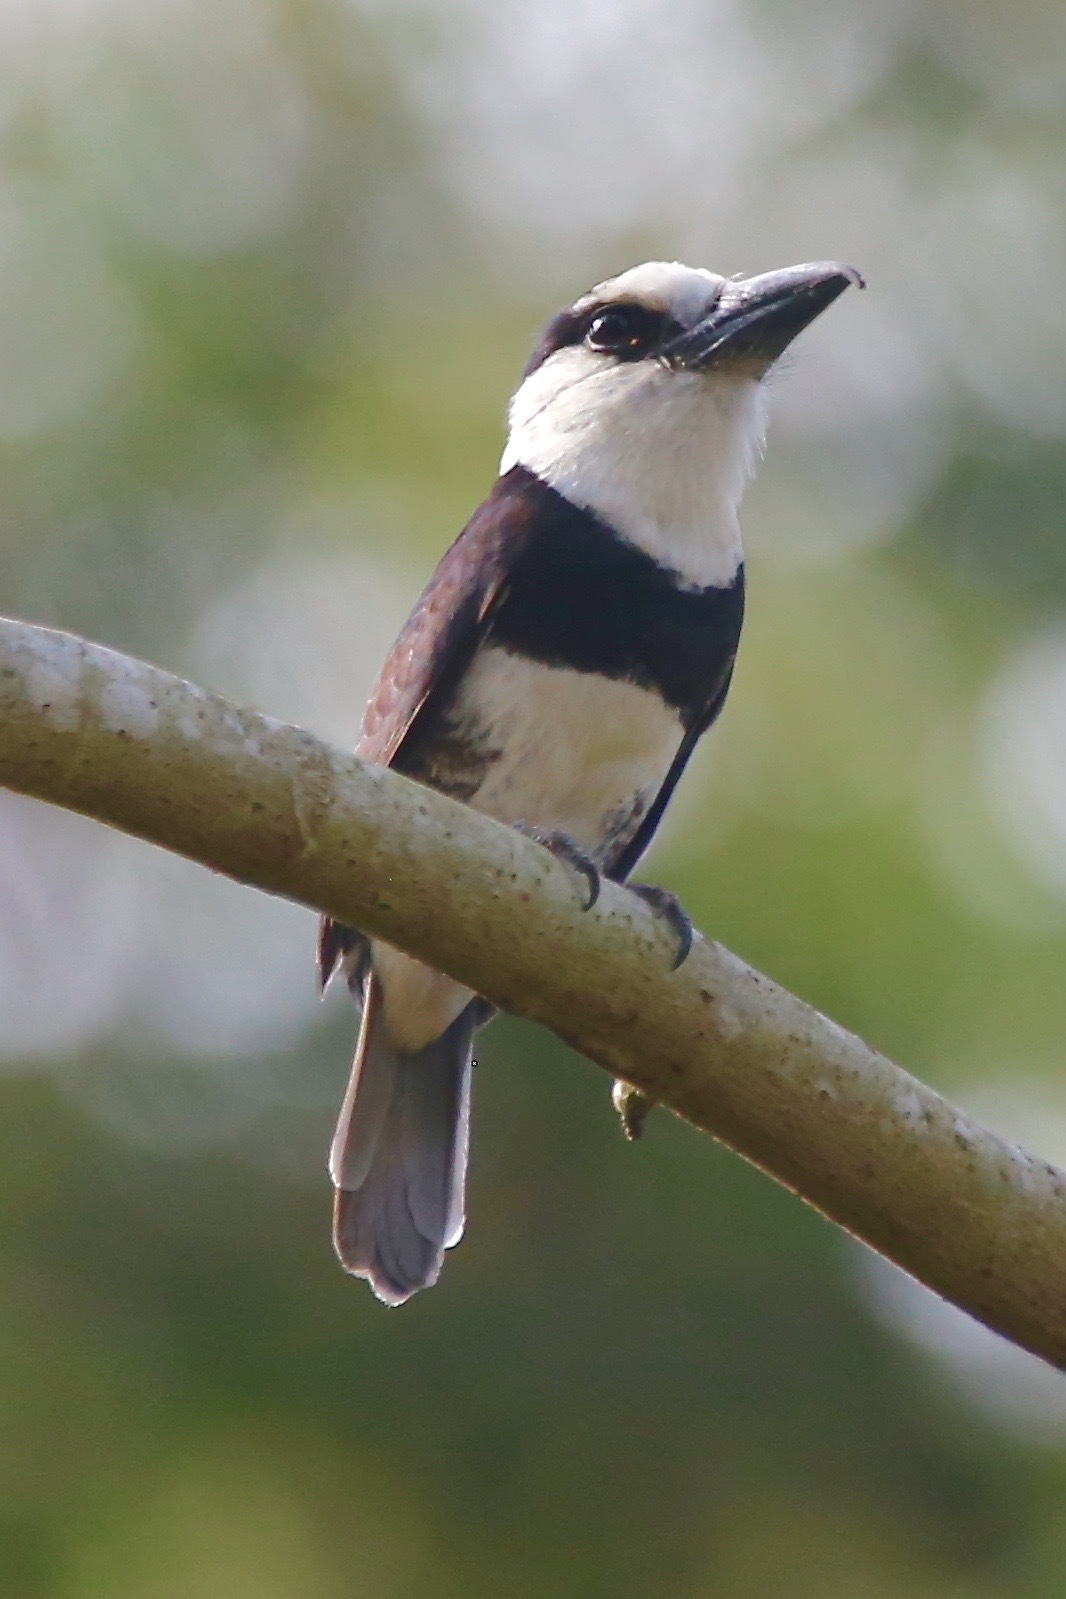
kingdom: Animalia
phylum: Chordata
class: Aves
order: Piciformes
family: Bucconidae
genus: Notharchus
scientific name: Notharchus hyperrhynchus
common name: White-necked puffbird
